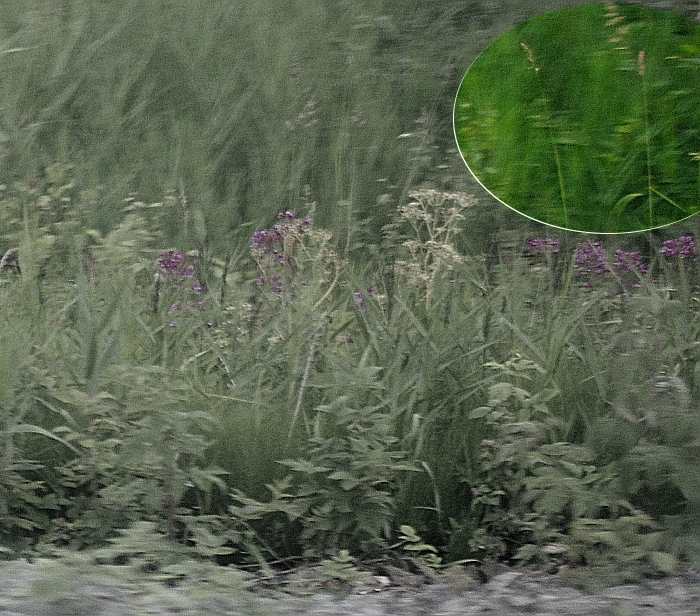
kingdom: Plantae
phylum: Tracheophyta
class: Liliopsida
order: Poales
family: Poaceae
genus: Dactylis
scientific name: Dactylis glomerata
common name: Orchardgrass
